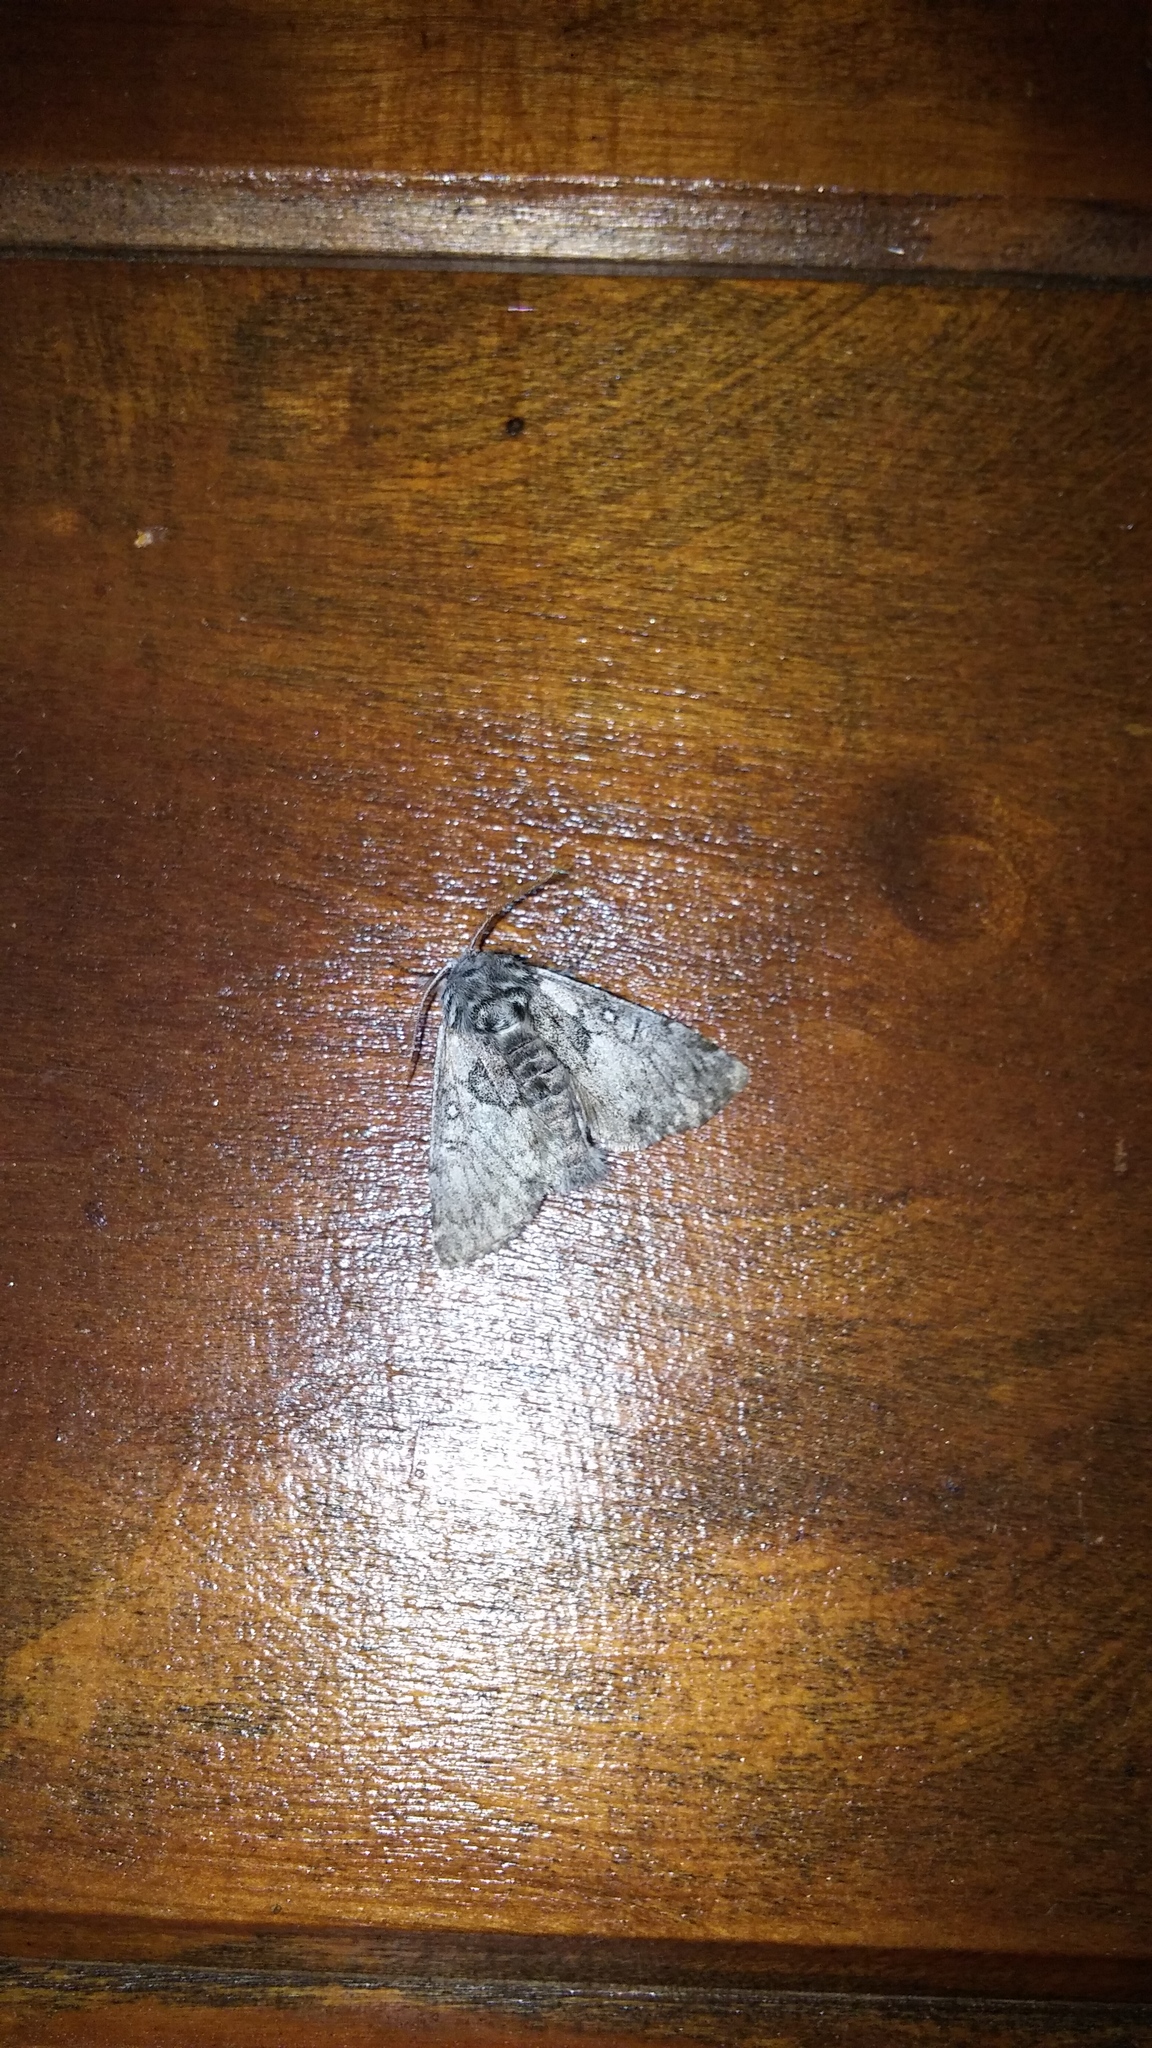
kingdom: Animalia
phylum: Arthropoda
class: Insecta
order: Lepidoptera
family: Noctuidae
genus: Colocasia
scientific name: Colocasia flavicornis
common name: Saddled yellowhorn
